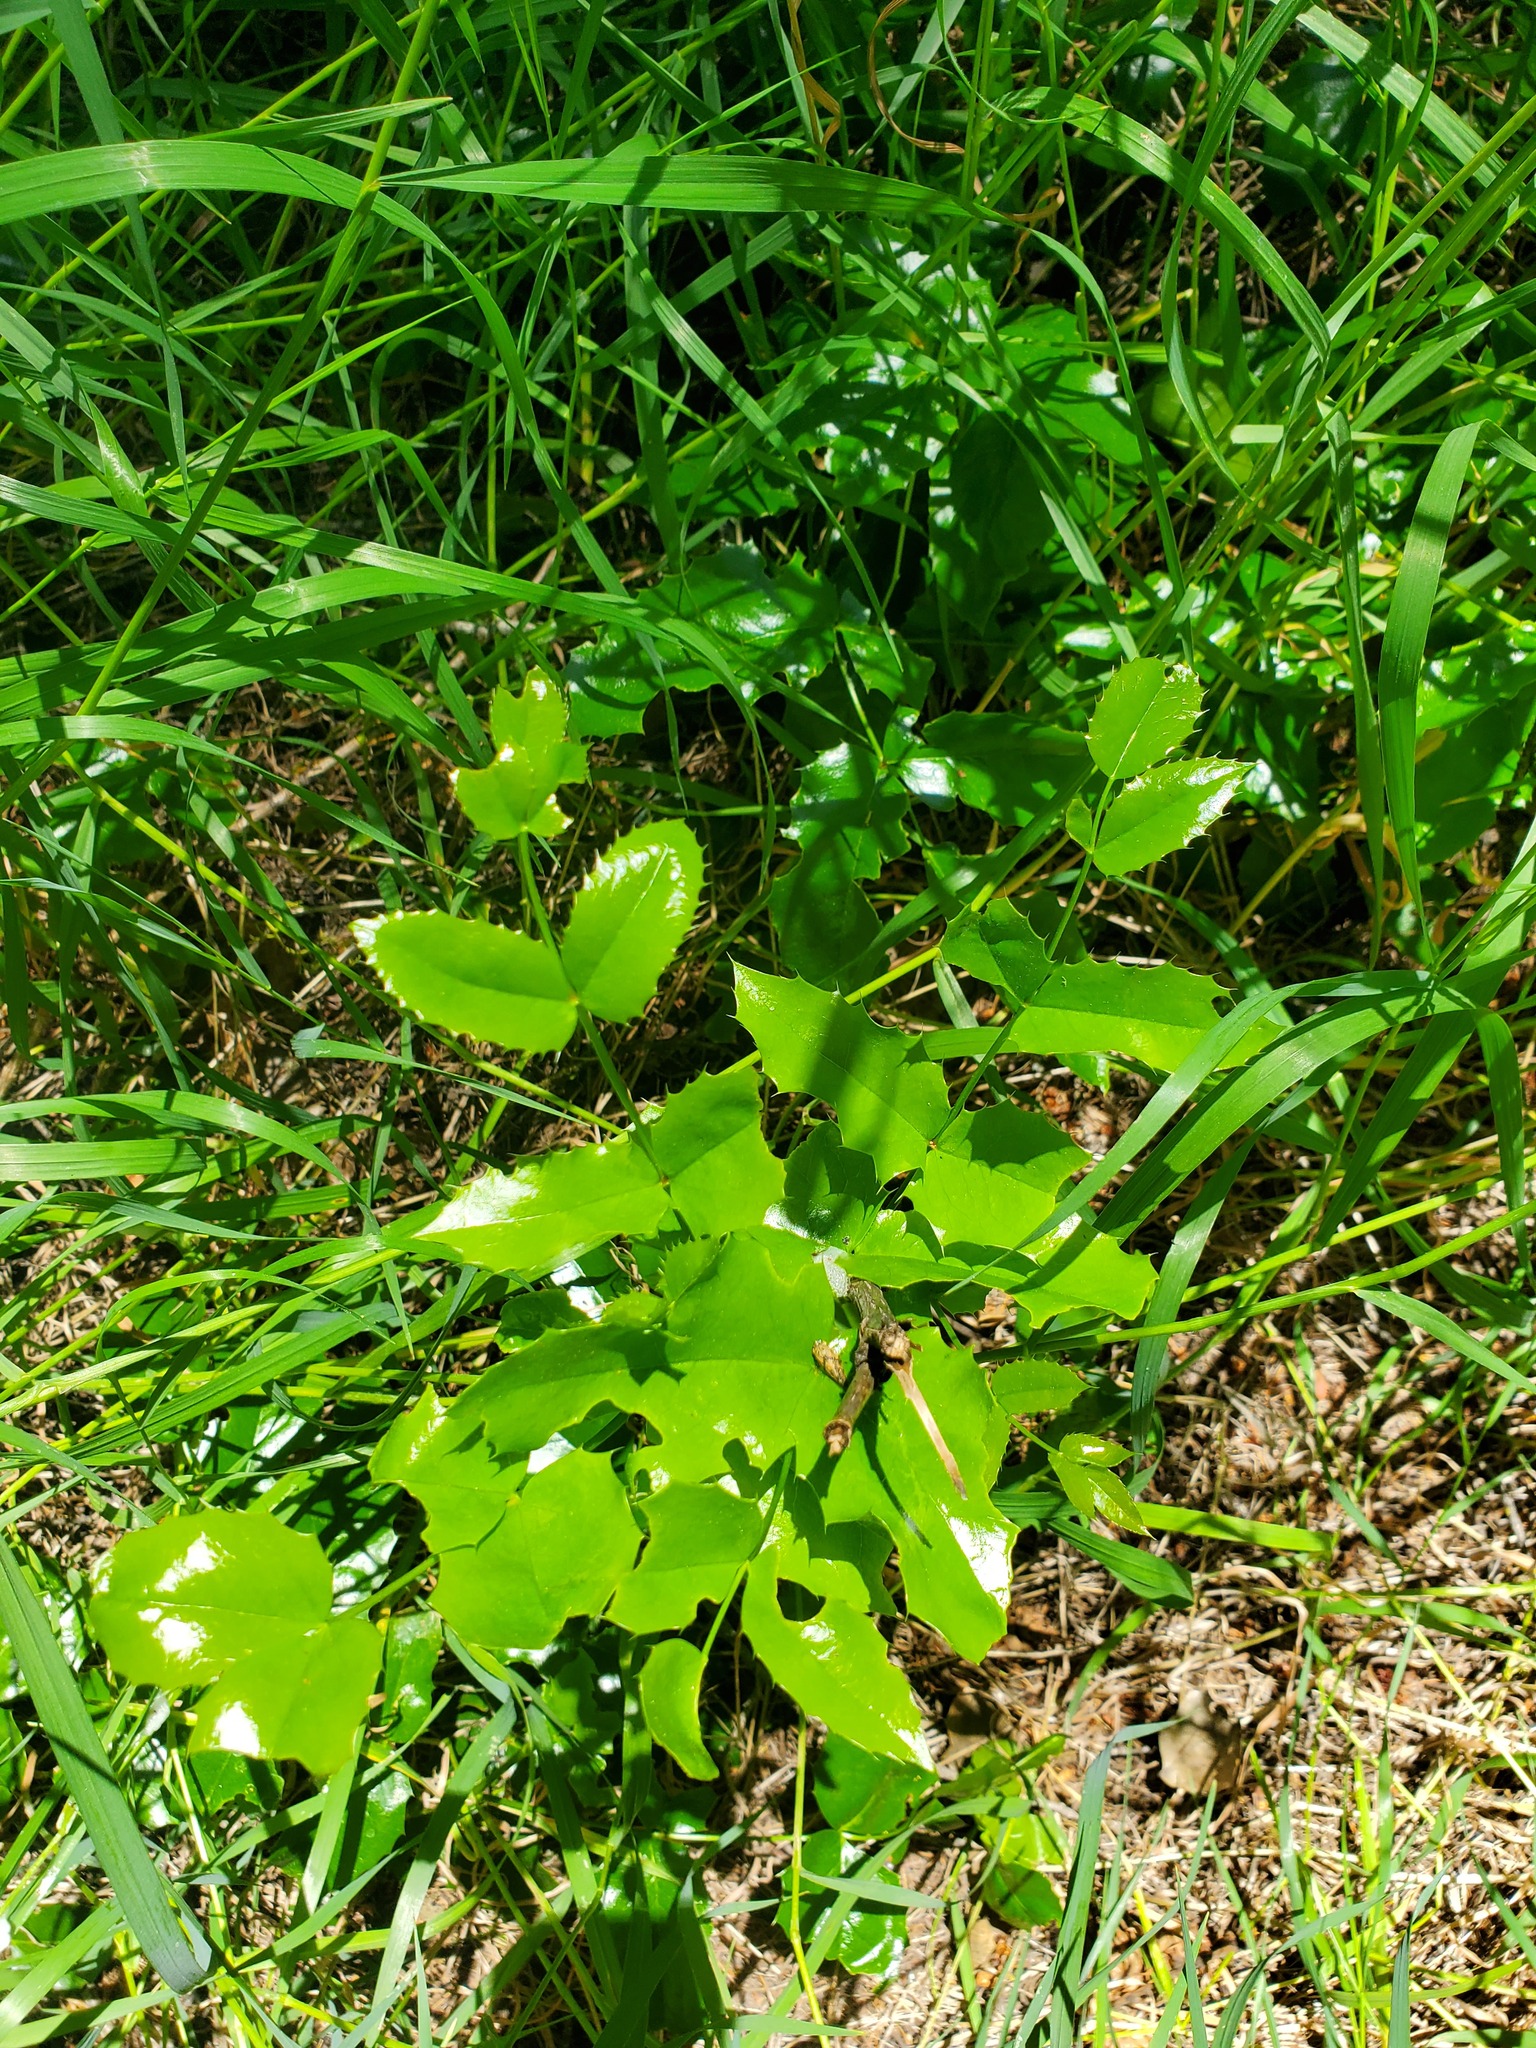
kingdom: Plantae
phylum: Tracheophyta
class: Magnoliopsida
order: Ranunculales
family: Berberidaceae
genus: Mahonia
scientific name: Mahonia aquifolium
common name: Oregon-grape
